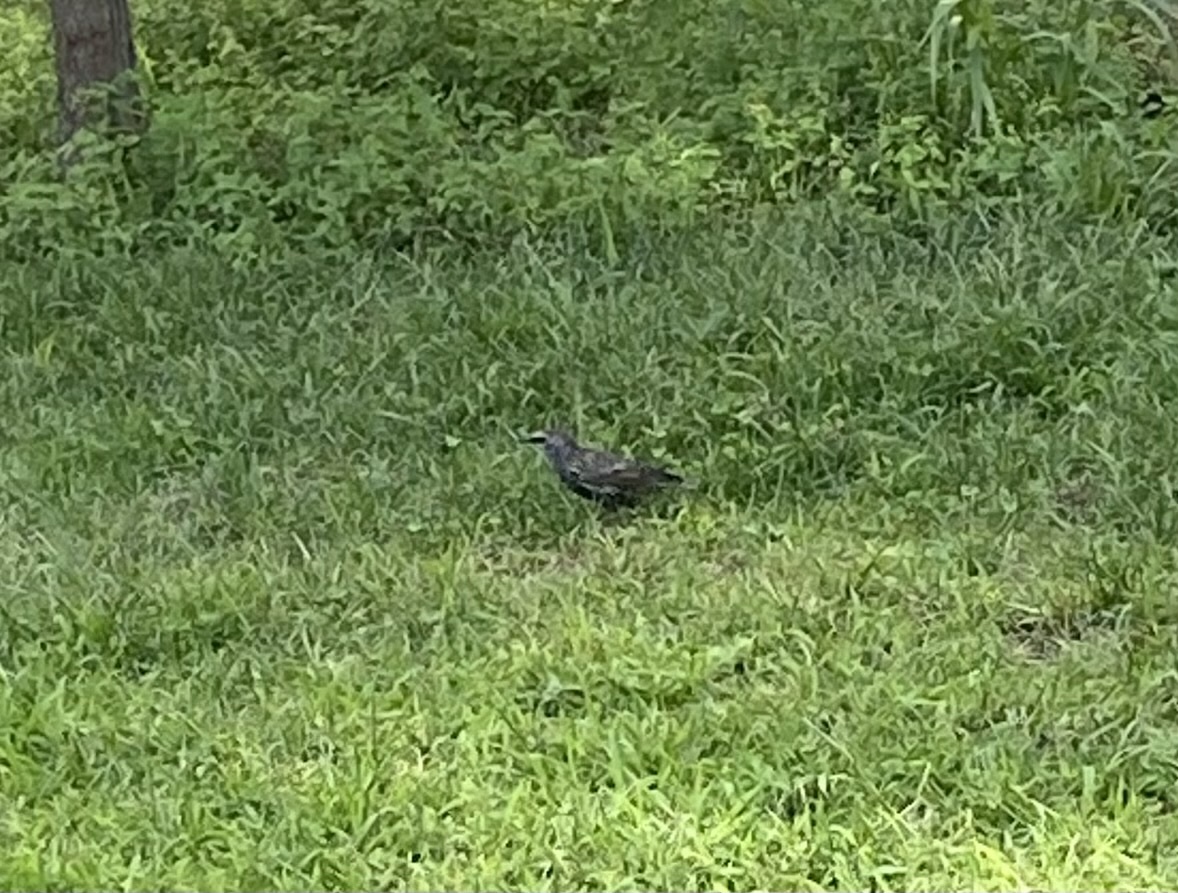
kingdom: Animalia
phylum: Chordata
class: Aves
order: Passeriformes
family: Sturnidae
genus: Sturnus
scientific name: Sturnus vulgaris
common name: Common starling
